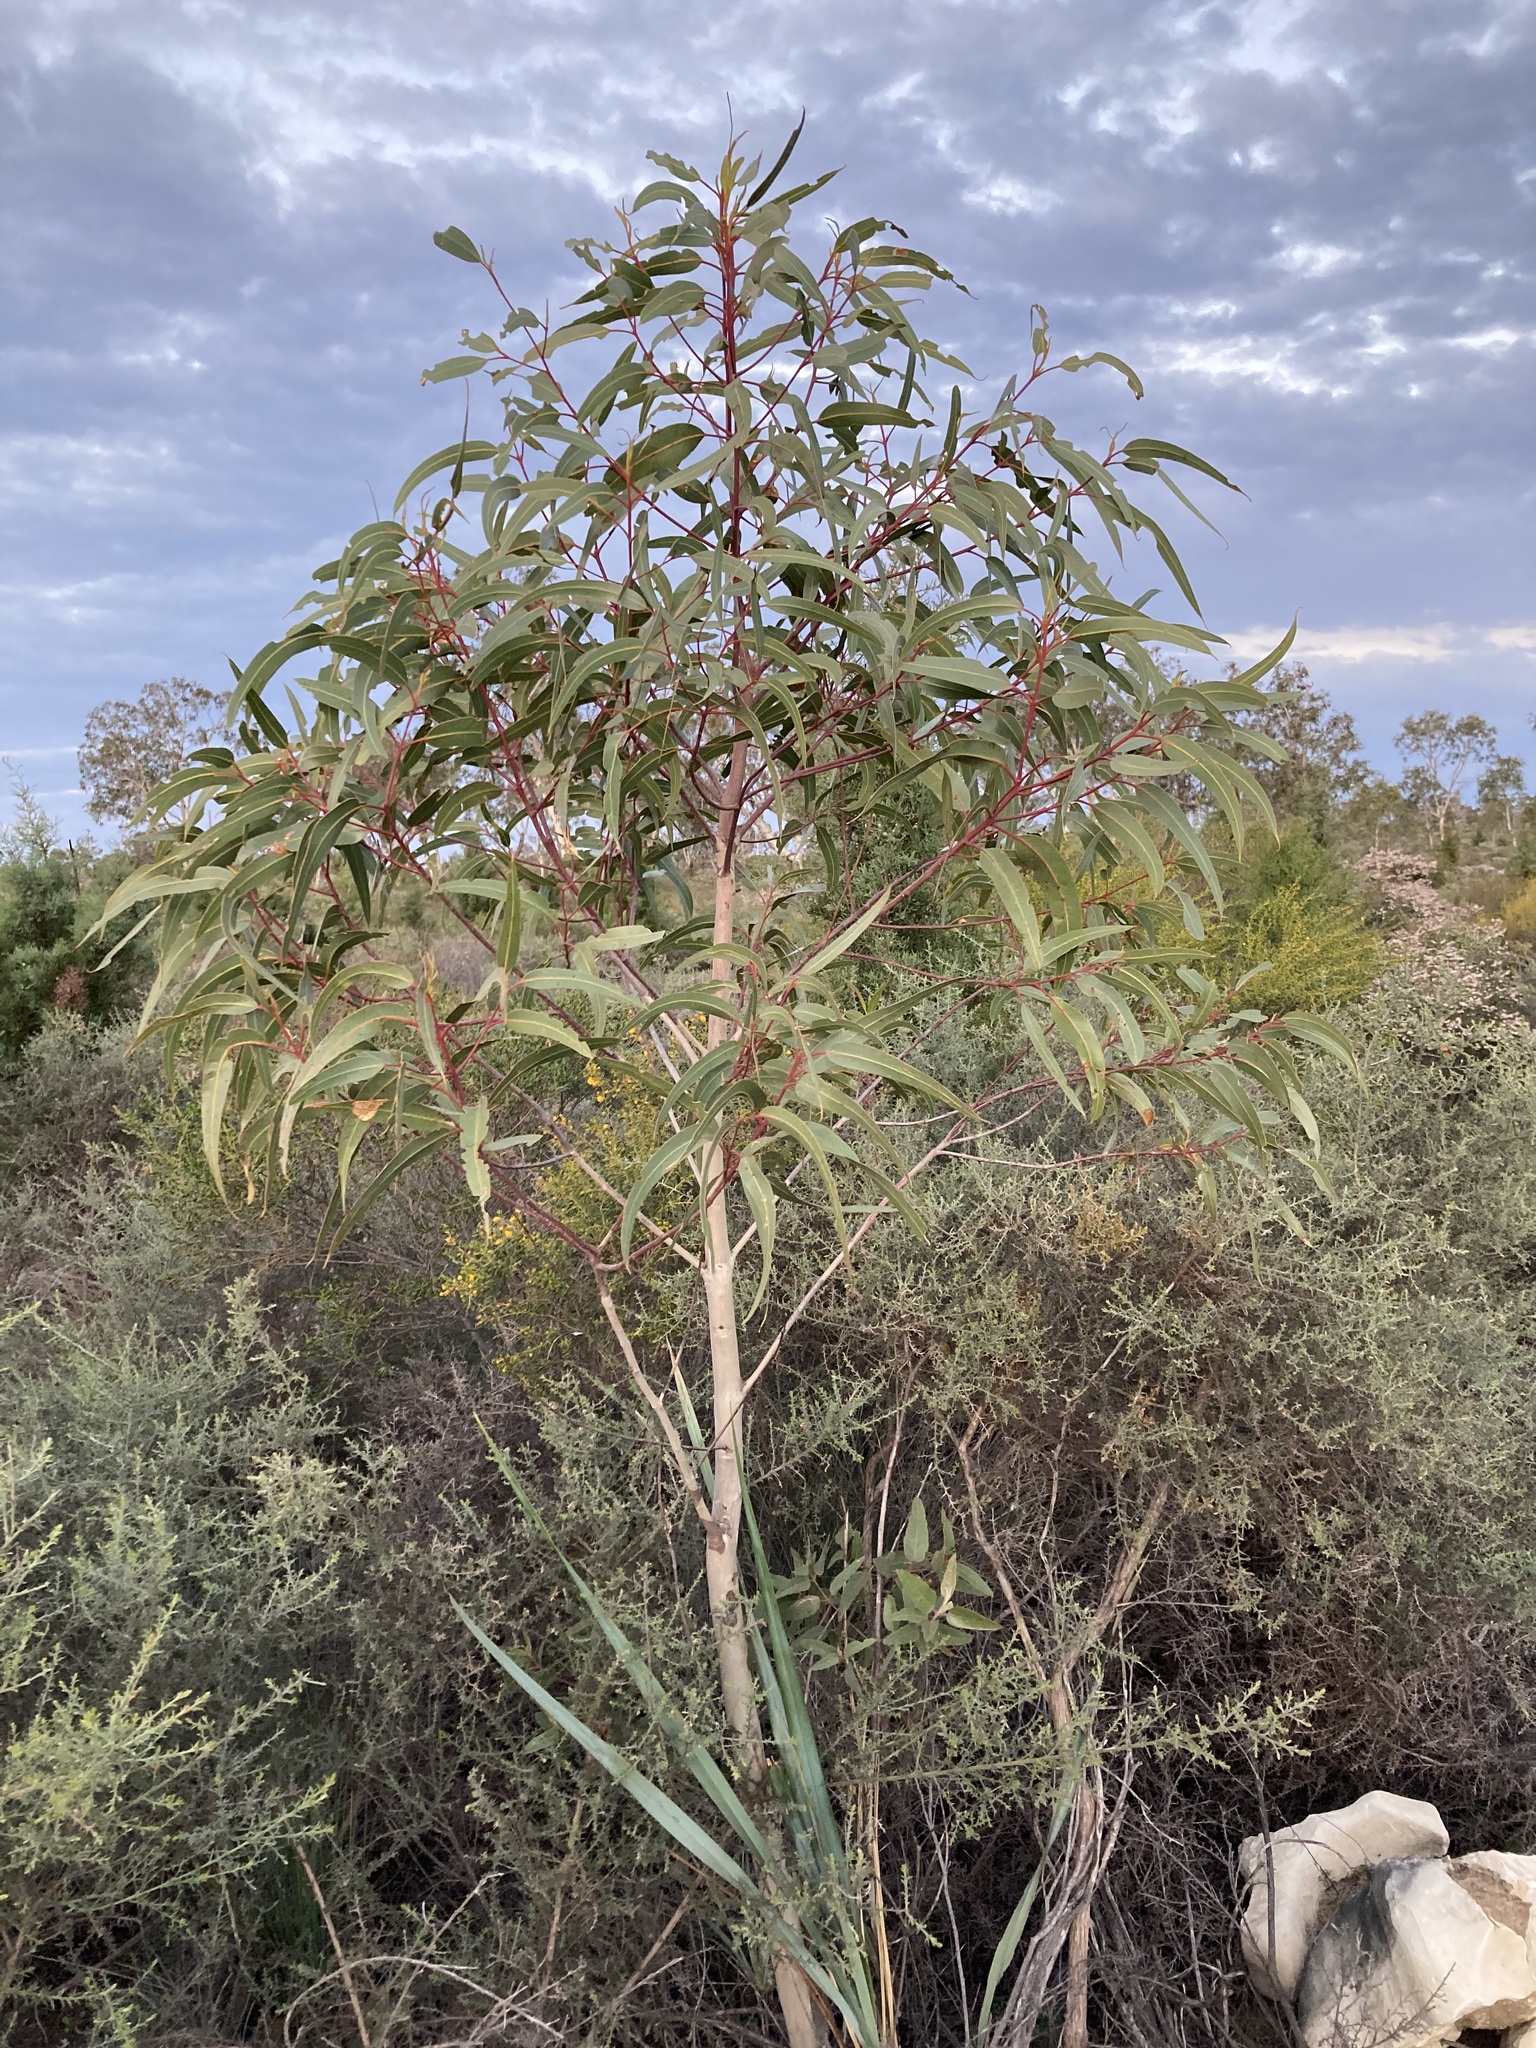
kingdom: Plantae
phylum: Tracheophyta
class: Magnoliopsida
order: Myrtales
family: Myrtaceae
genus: Eucalyptus
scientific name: Eucalyptus erythrocorys
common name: Bookara gum
